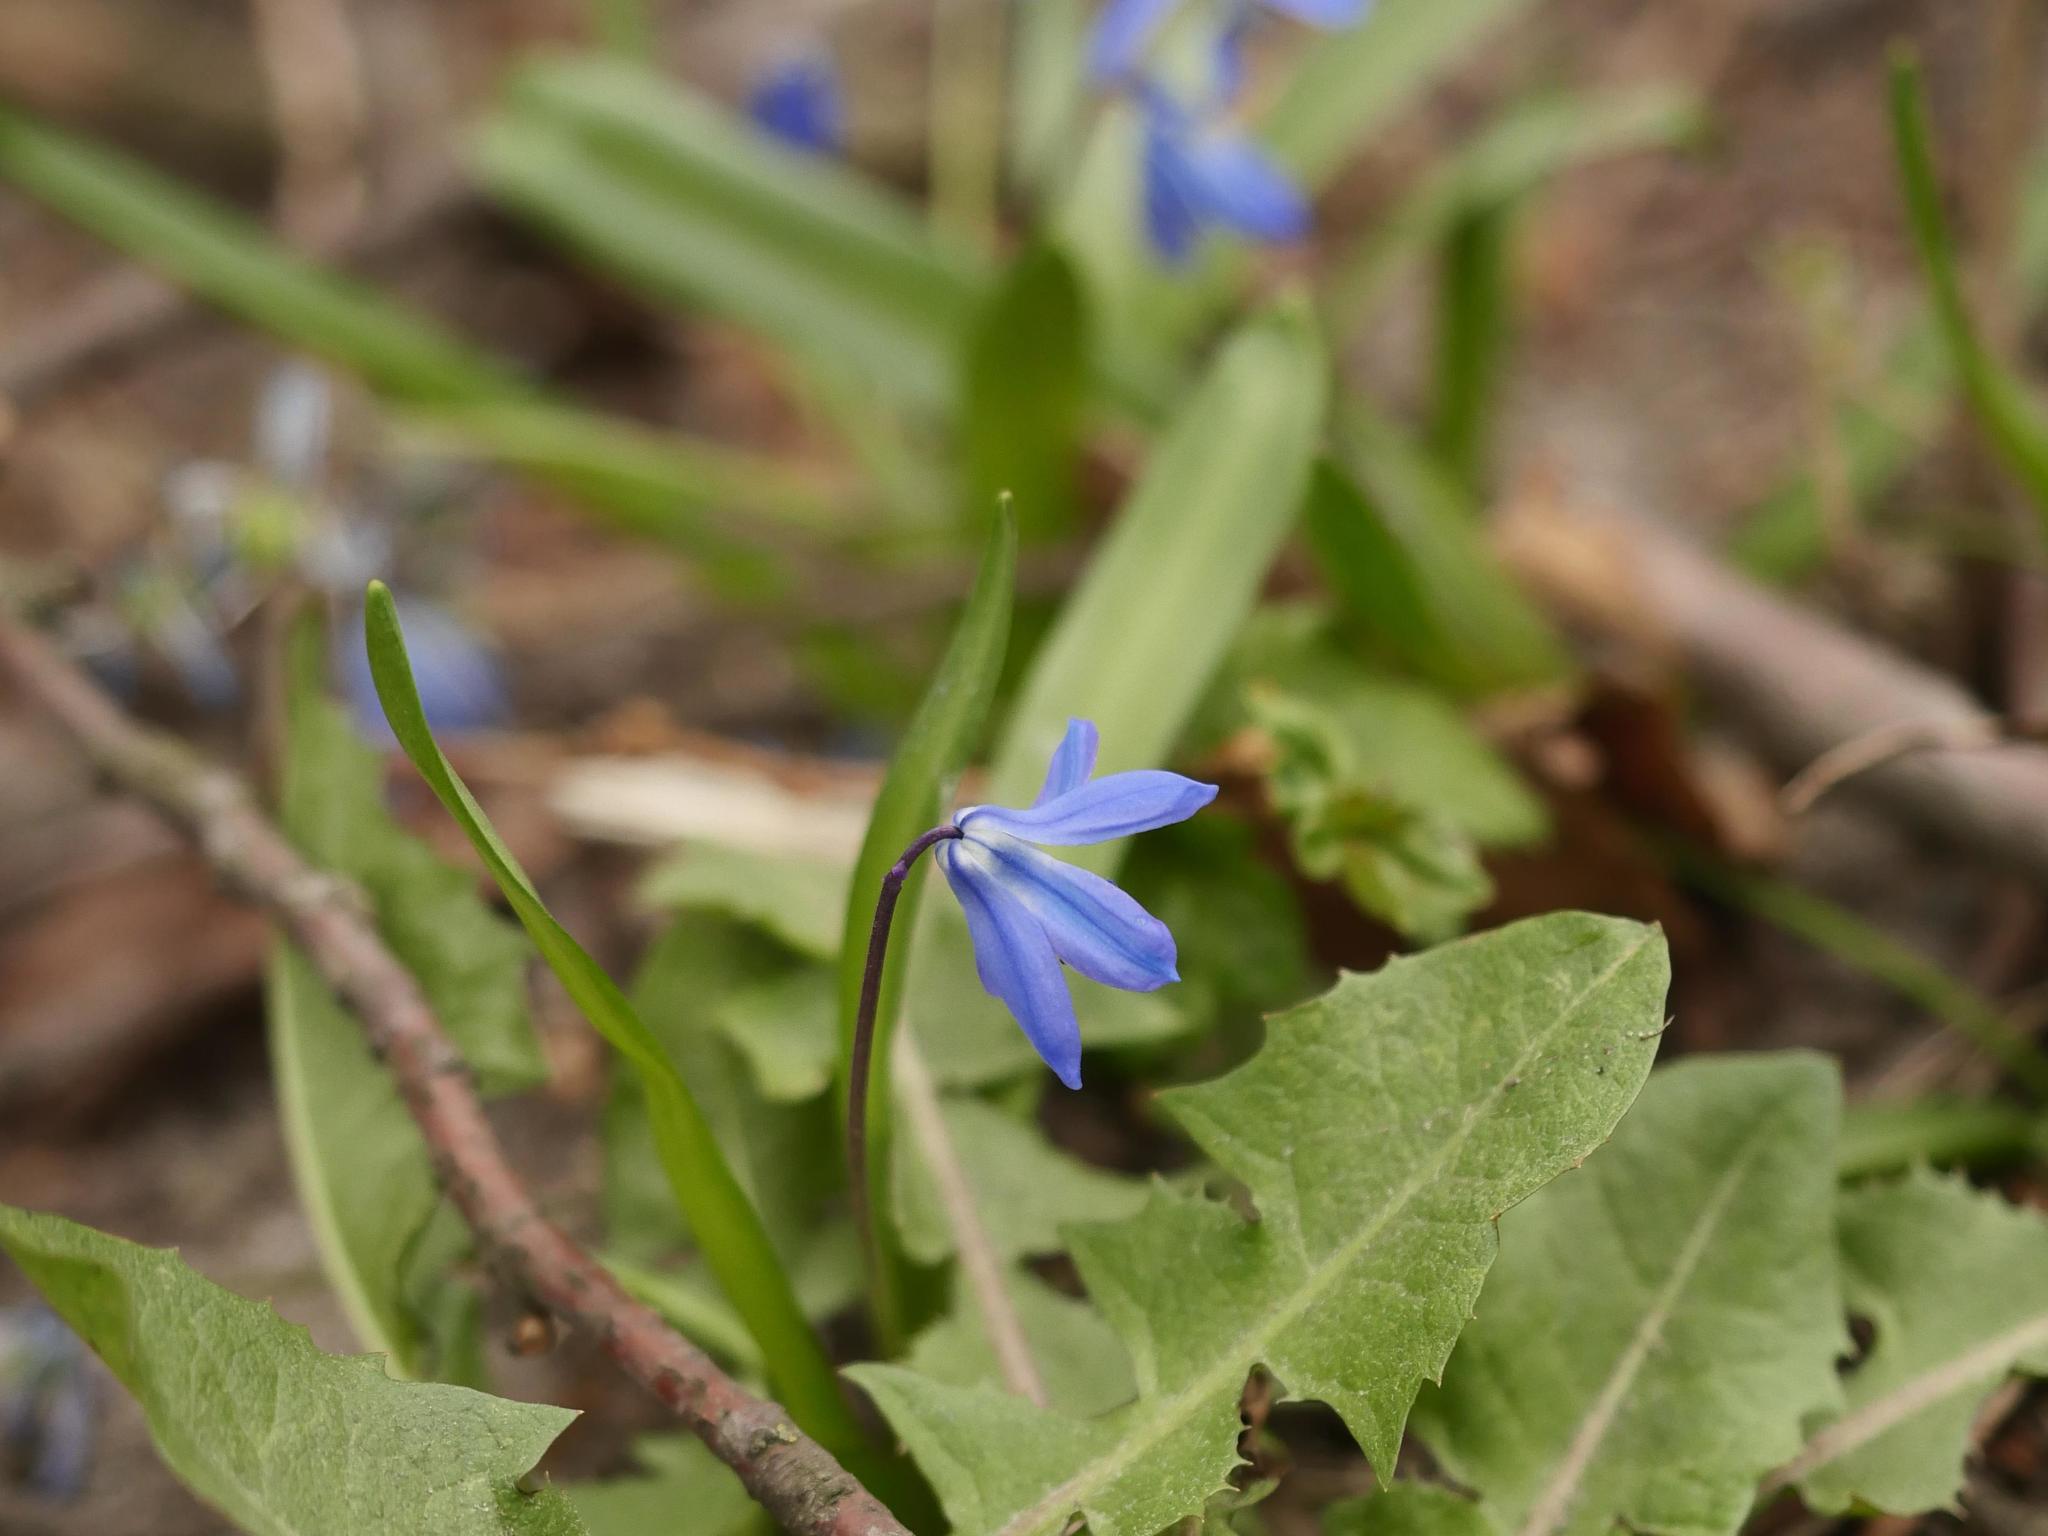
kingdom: Plantae
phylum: Tracheophyta
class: Liliopsida
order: Asparagales
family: Asparagaceae
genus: Scilla
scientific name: Scilla siberica
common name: Siberian squill
